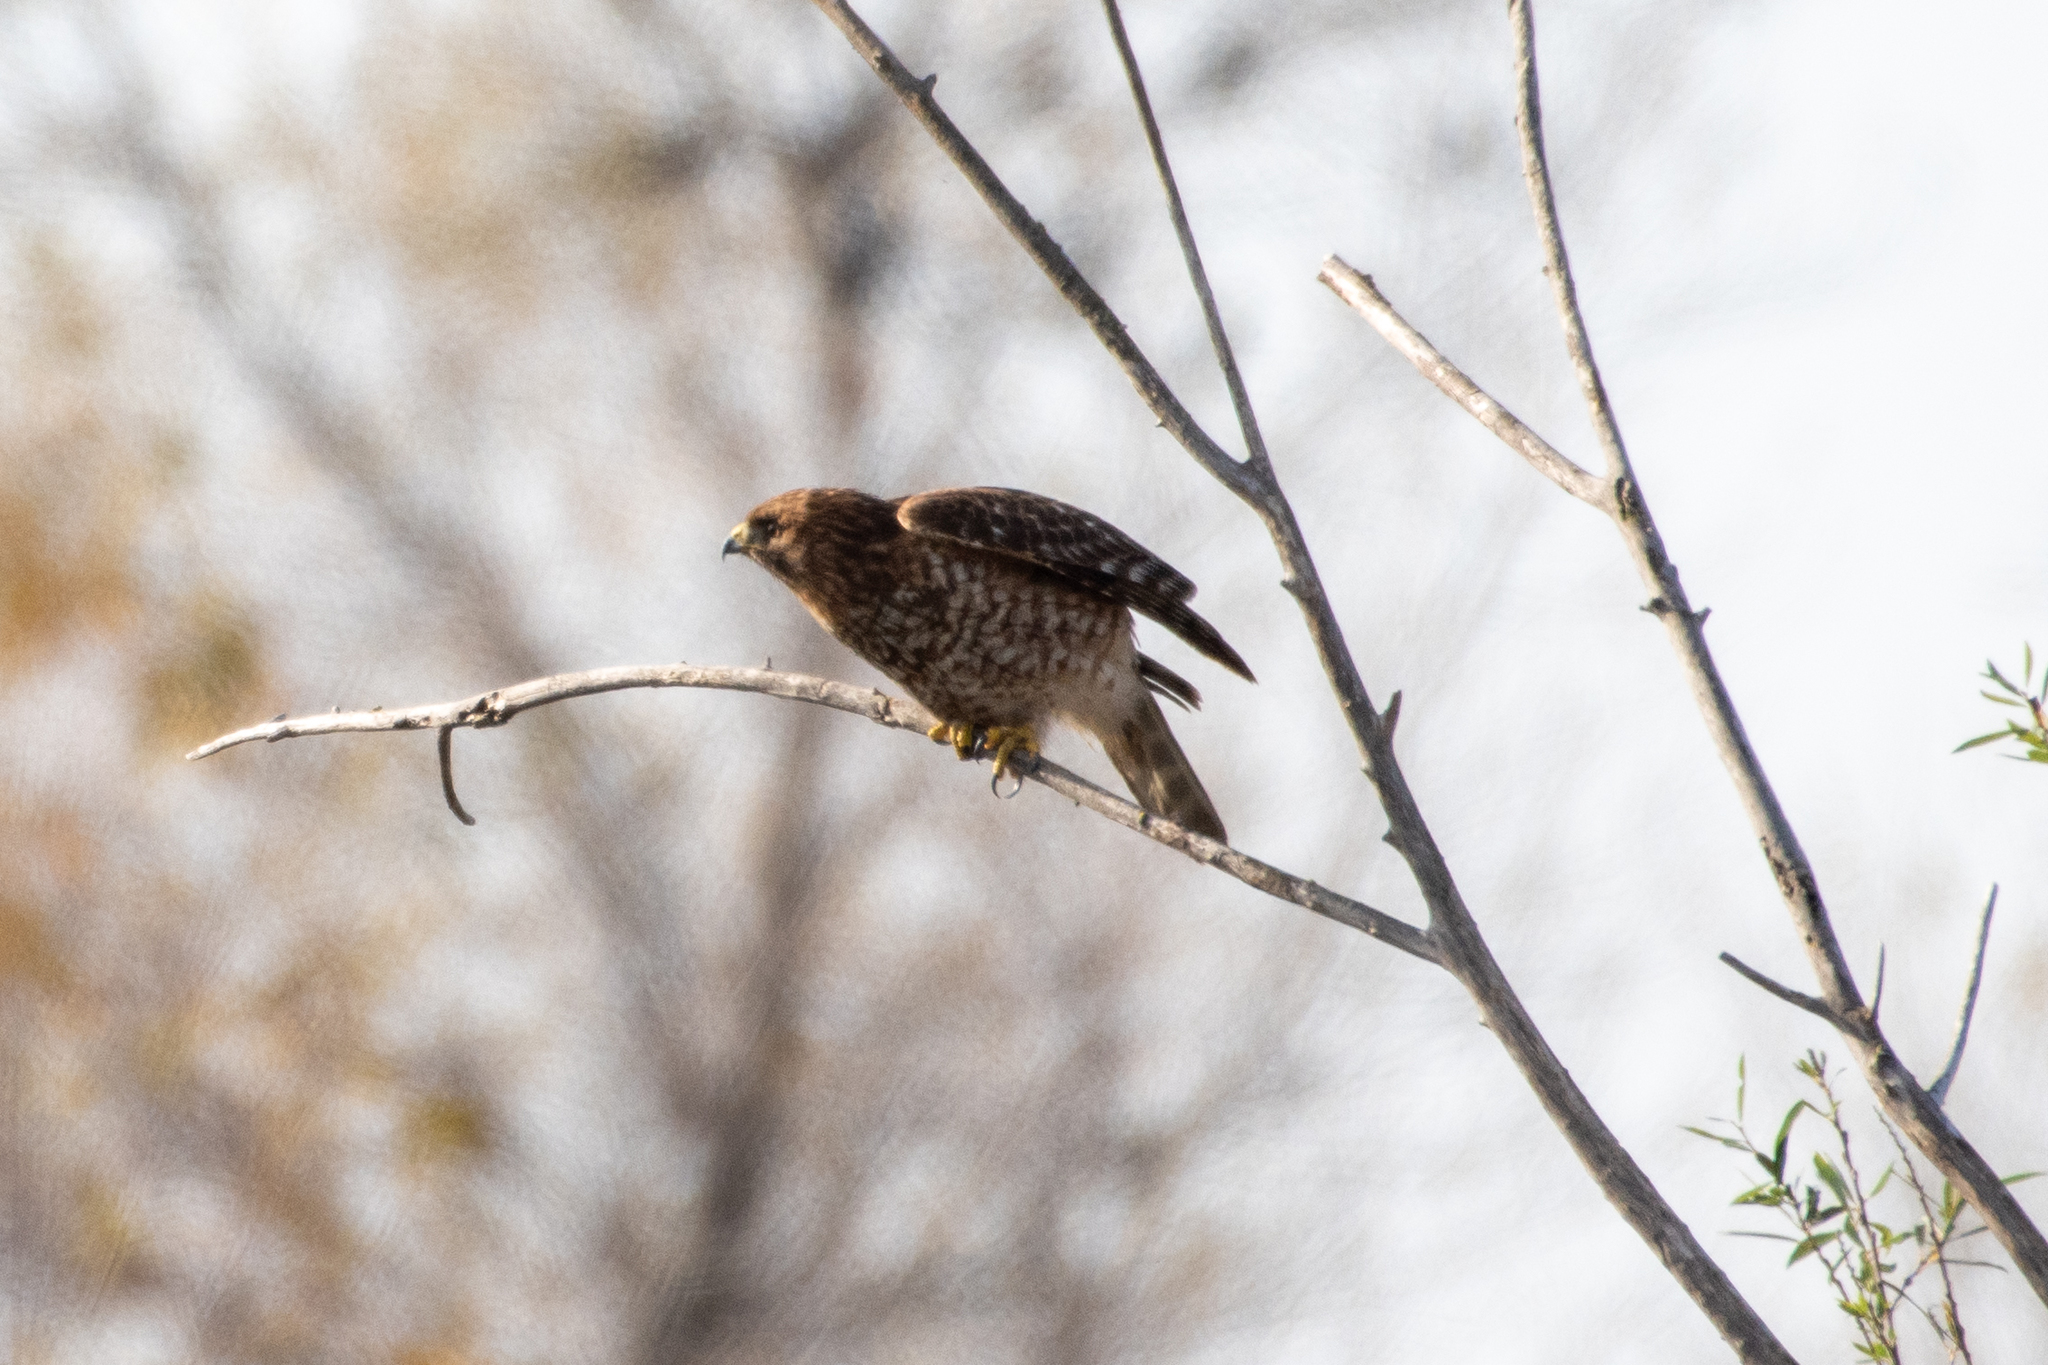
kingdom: Animalia
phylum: Chordata
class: Aves
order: Accipitriformes
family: Accipitridae
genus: Buteo
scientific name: Buteo lineatus
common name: Red-shouldered hawk
